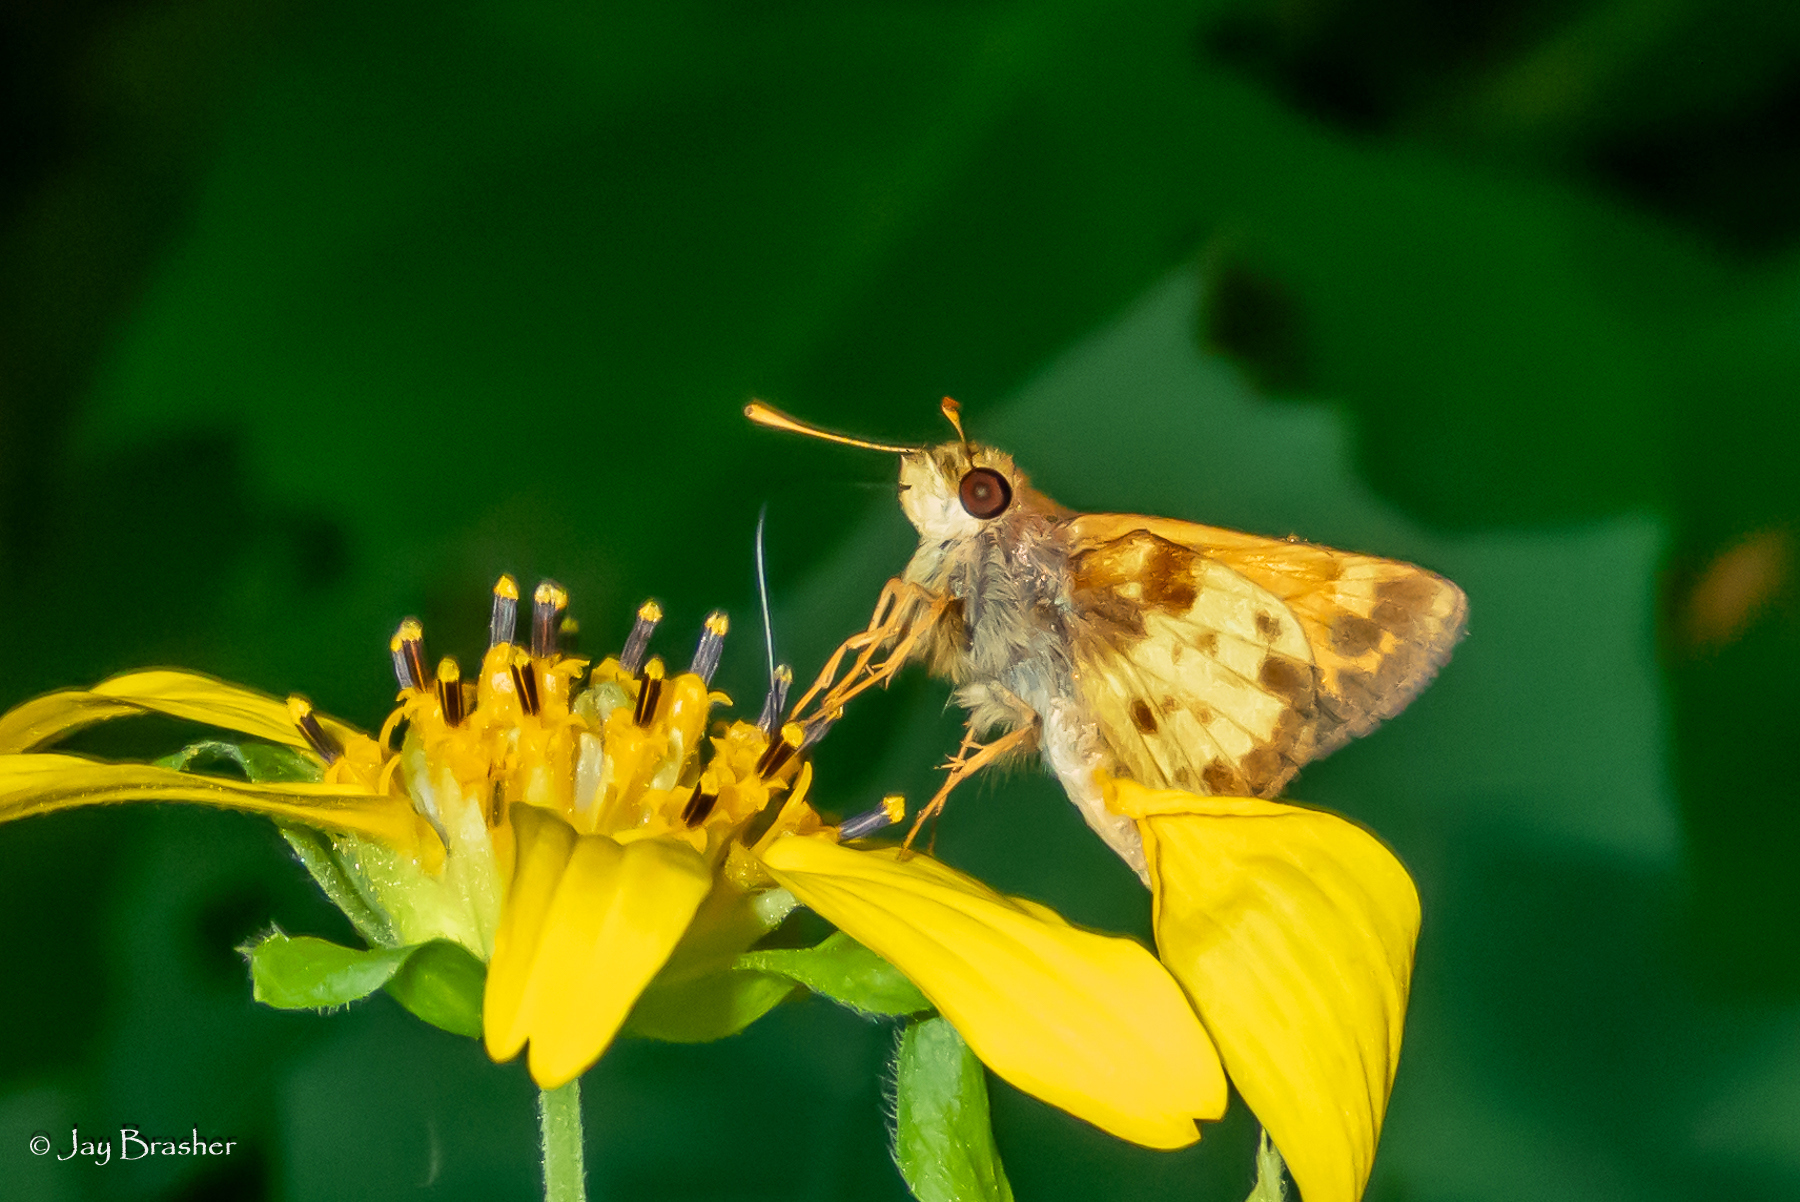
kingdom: Animalia
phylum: Arthropoda
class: Insecta
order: Lepidoptera
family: Hesperiidae
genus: Lon
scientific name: Lon zabulon
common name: Zabulon skipper
